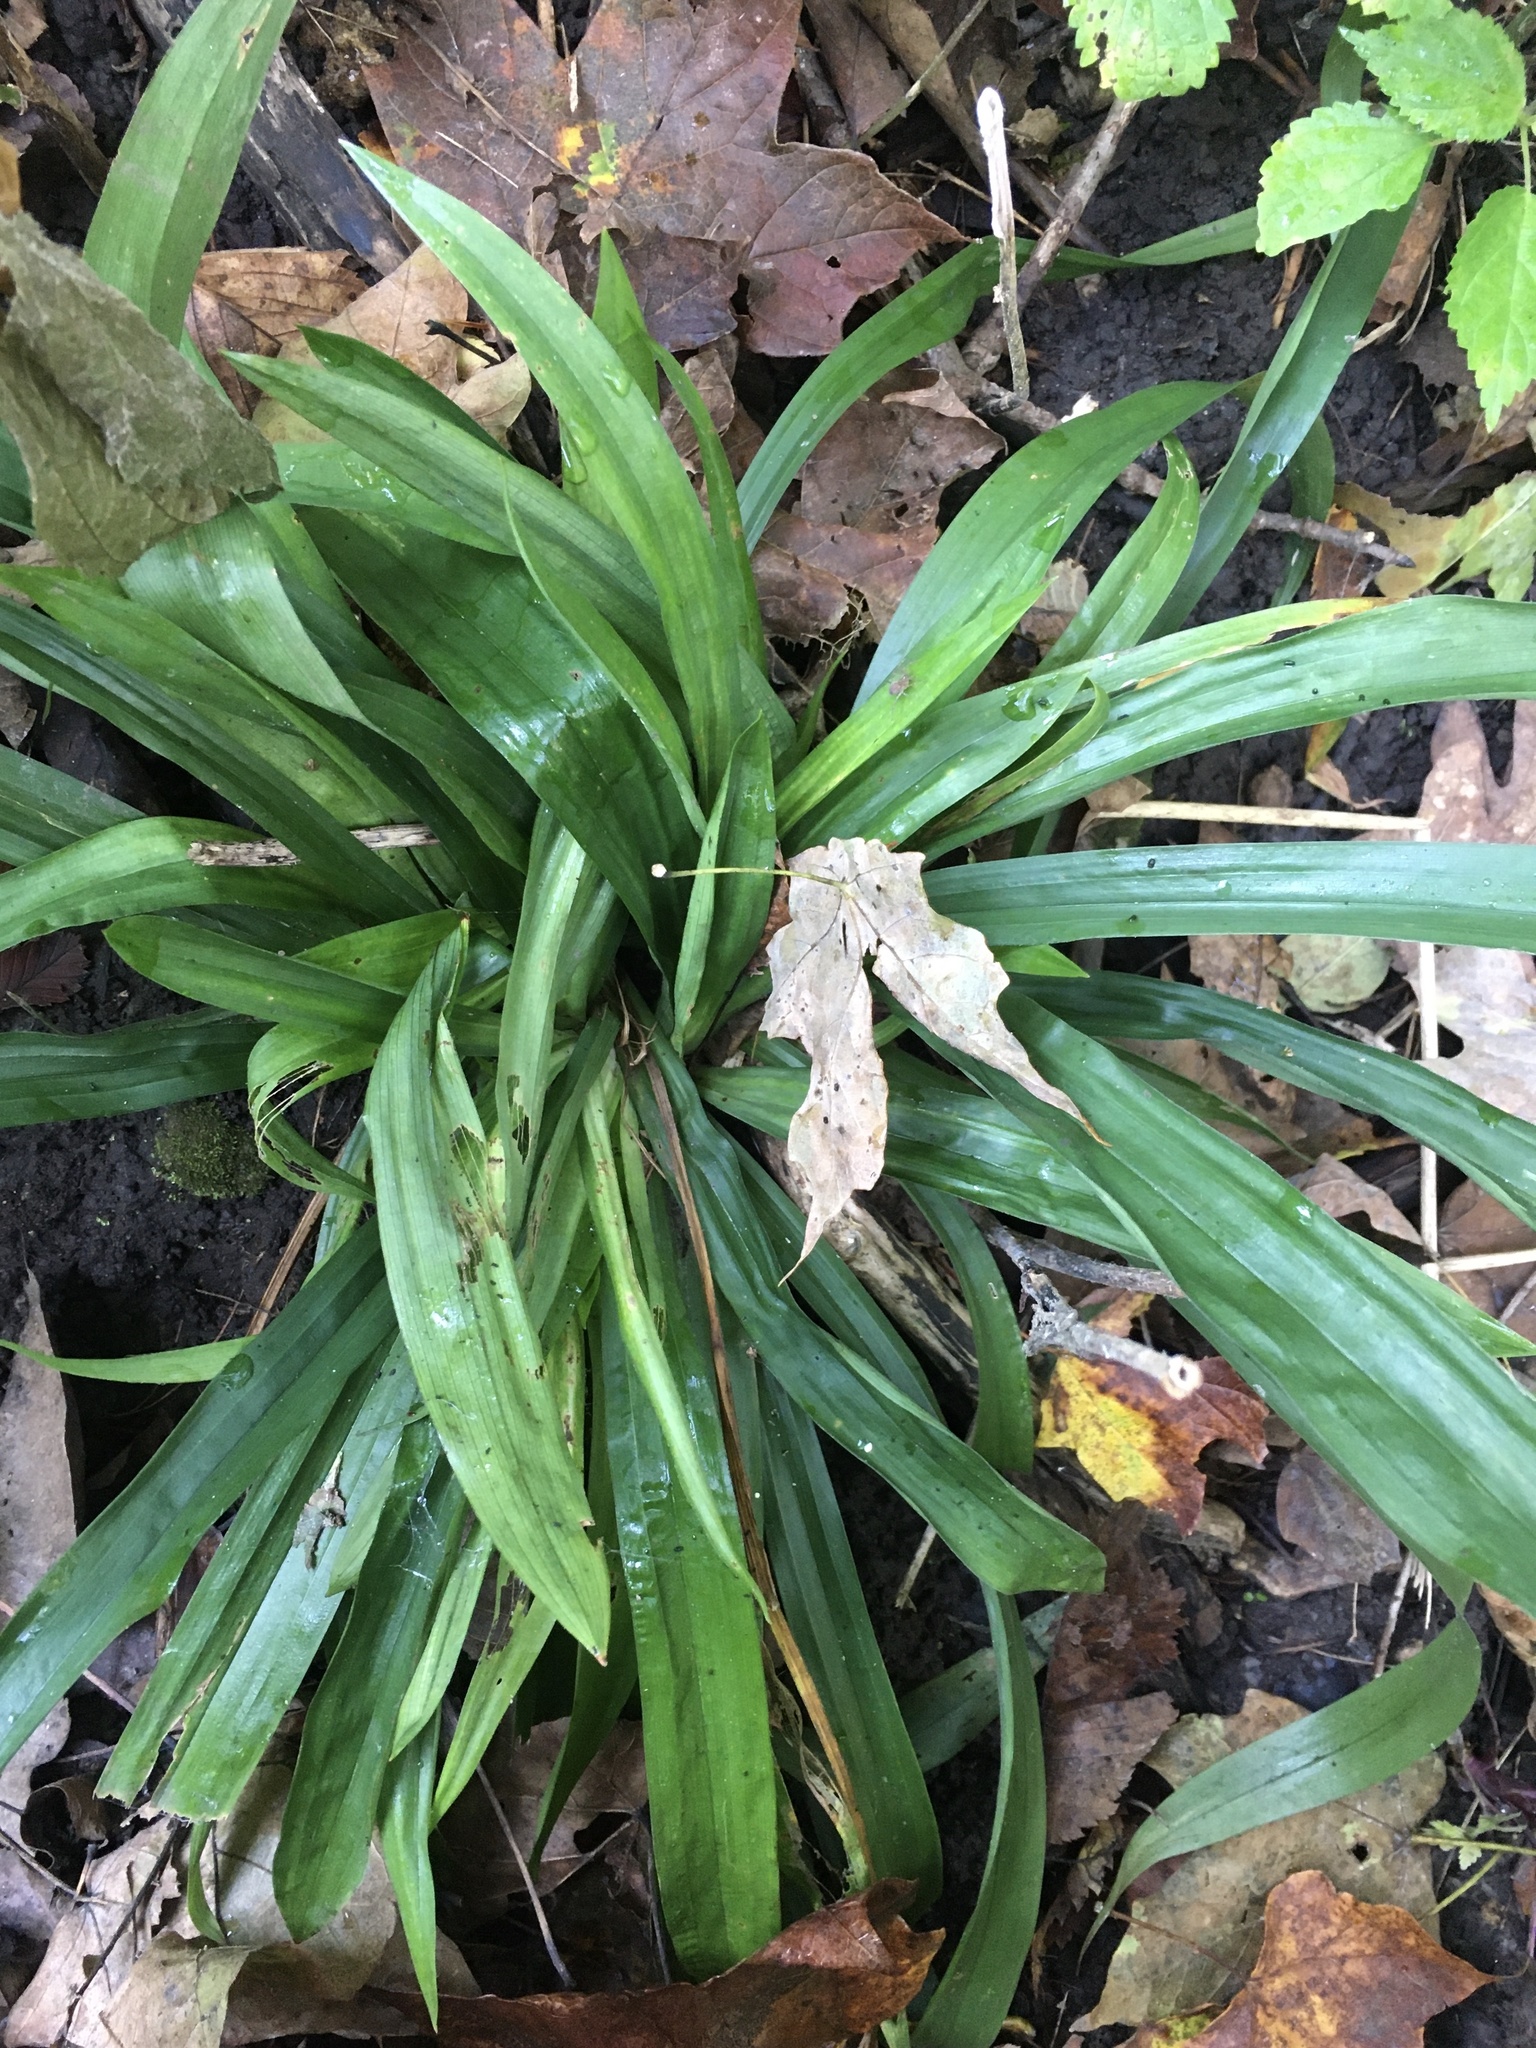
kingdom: Plantae
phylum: Tracheophyta
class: Liliopsida
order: Poales
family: Cyperaceae
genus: Carex
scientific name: Carex albursina
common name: Blunt-scale wood sedge
